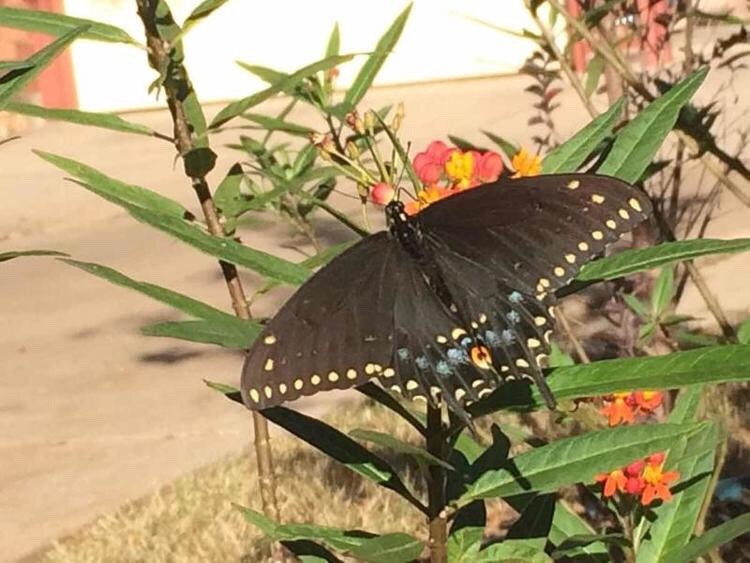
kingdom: Animalia
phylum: Arthropoda
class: Insecta
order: Lepidoptera
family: Papilionidae
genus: Papilio
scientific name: Papilio polyxenes
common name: Black swallowtail
